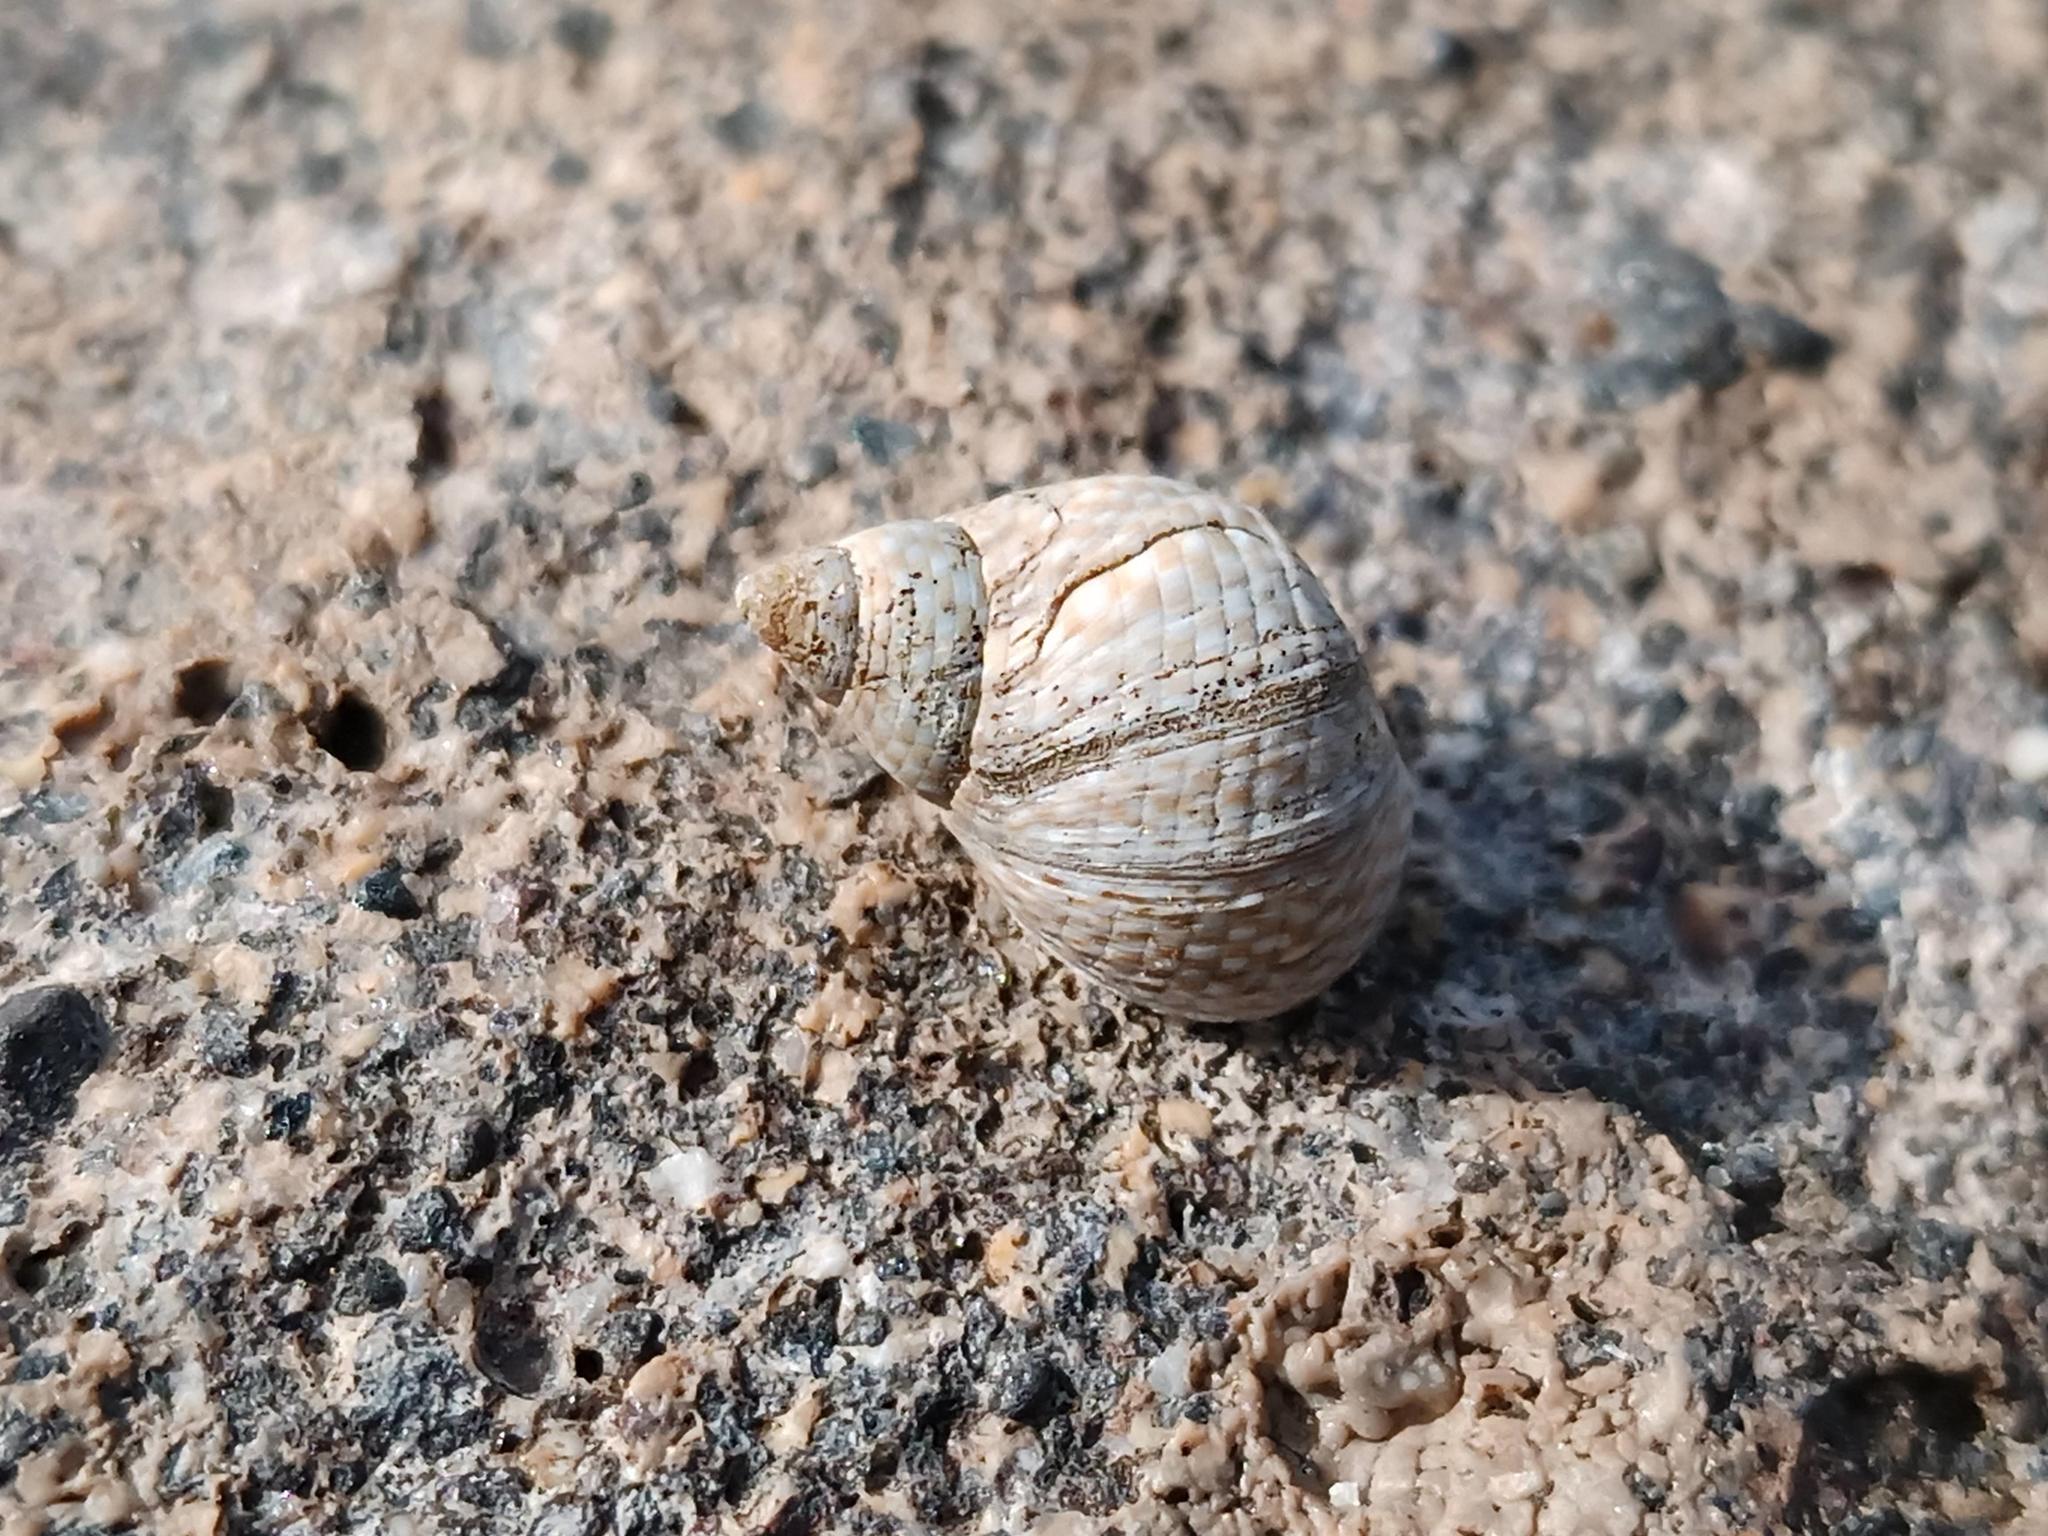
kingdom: Animalia
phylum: Mollusca
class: Gastropoda
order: Littorinimorpha
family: Littorinidae
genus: Tectarius
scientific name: Tectarius striatus
